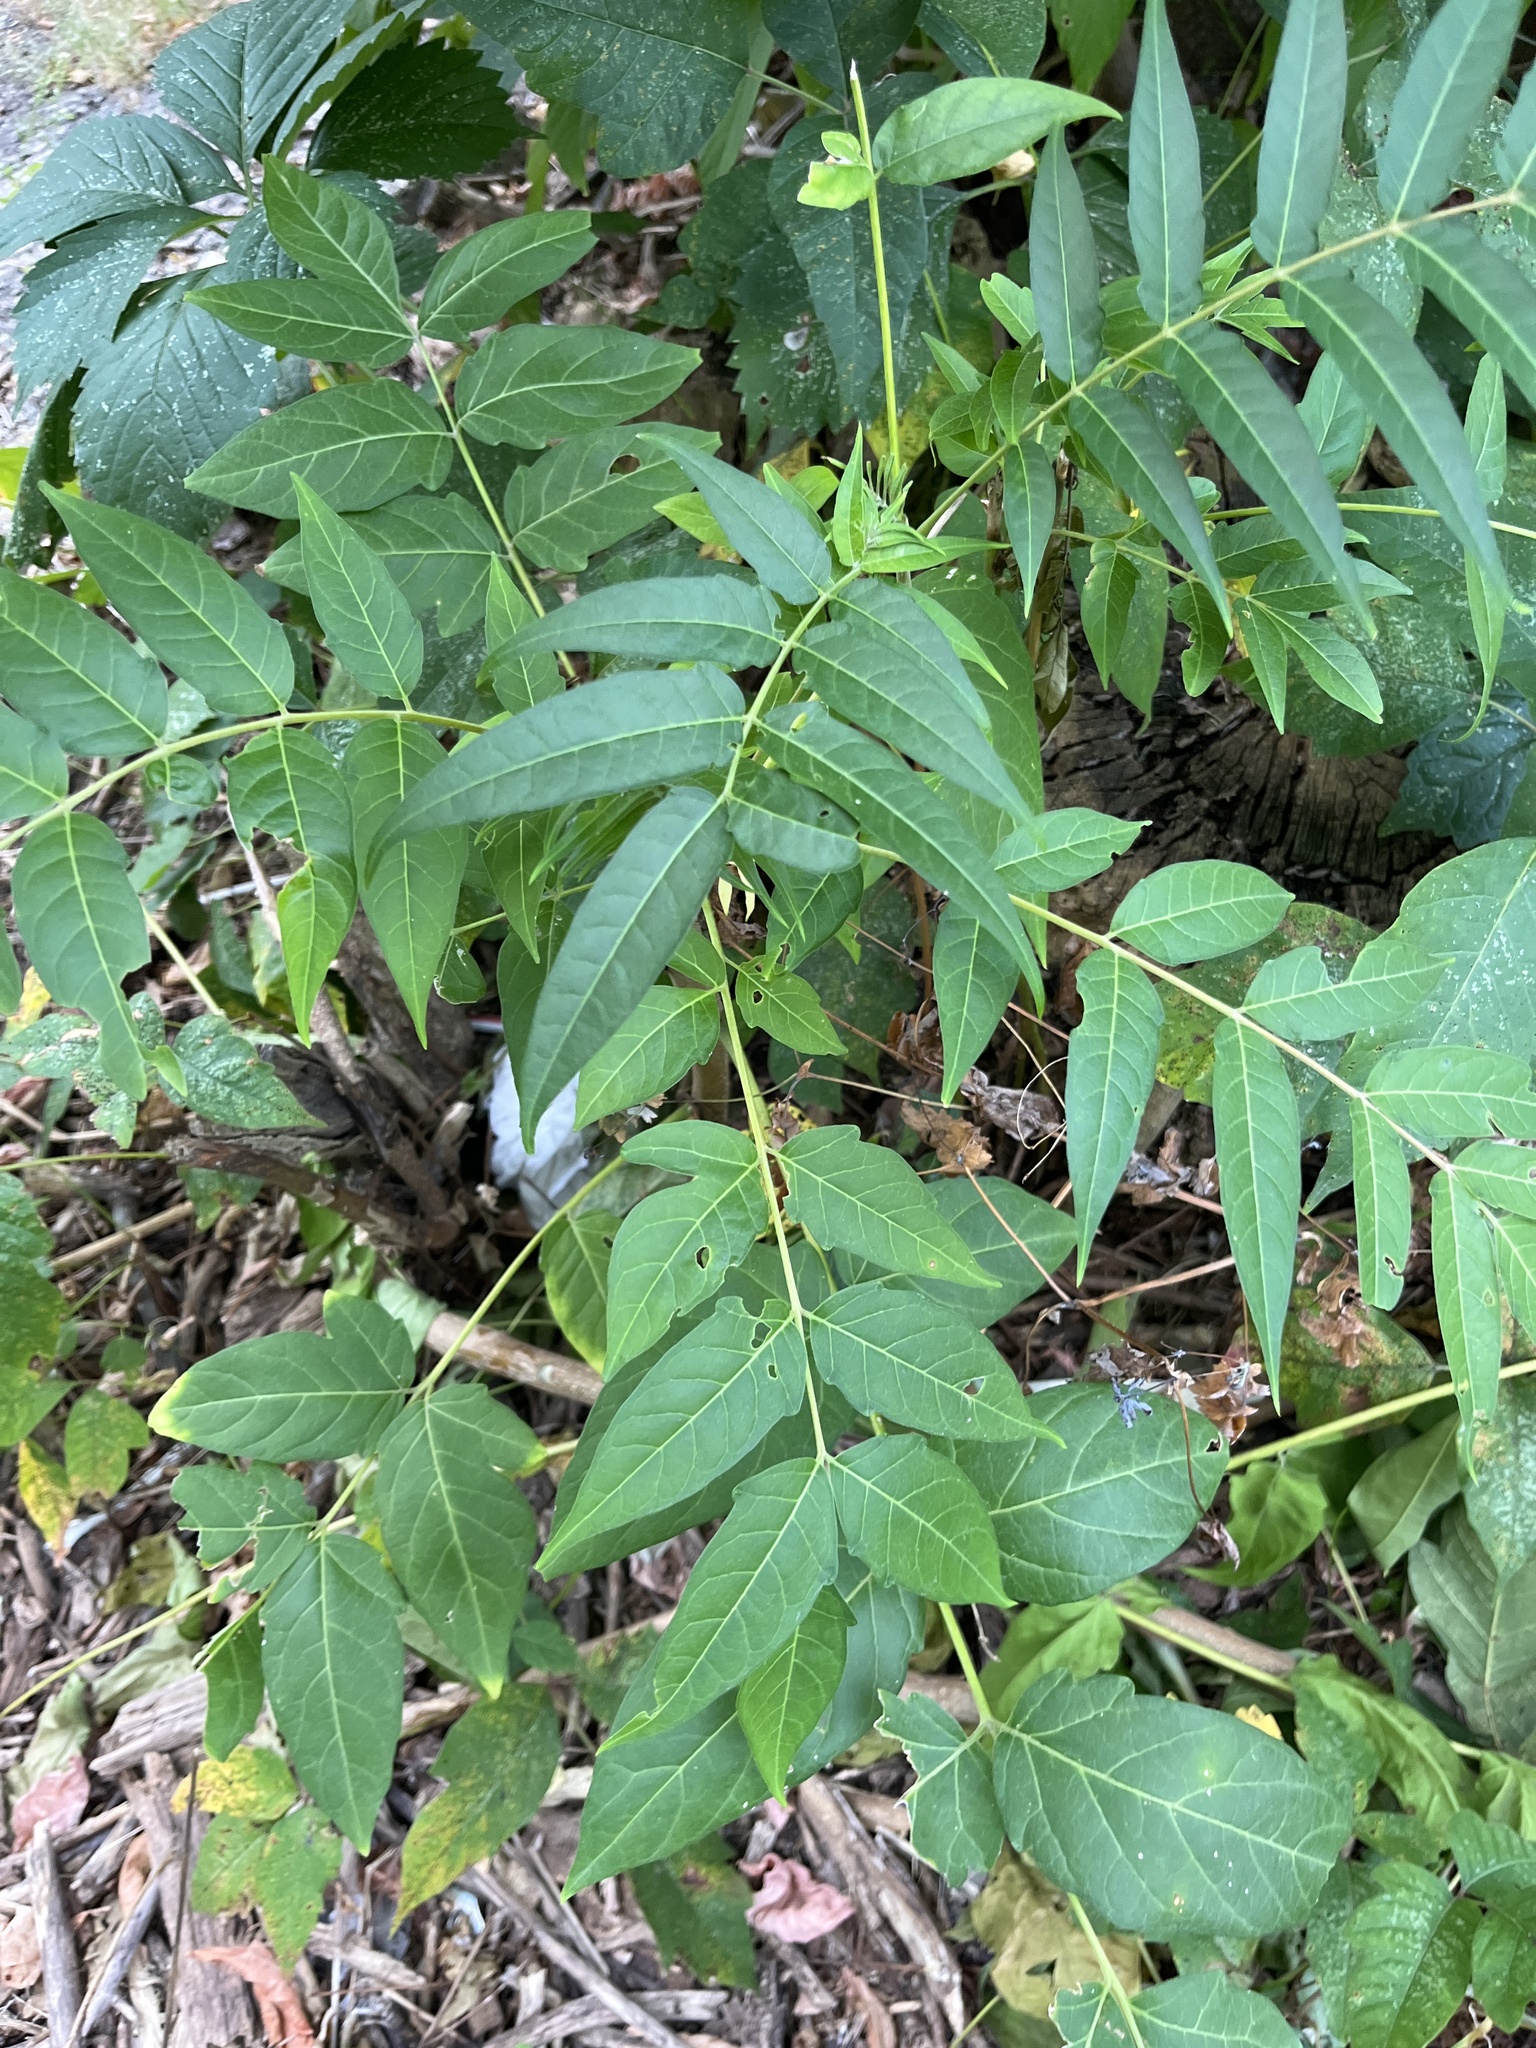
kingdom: Plantae
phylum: Tracheophyta
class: Magnoliopsida
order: Sapindales
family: Simaroubaceae
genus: Ailanthus
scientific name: Ailanthus altissima
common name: Tree-of-heaven
